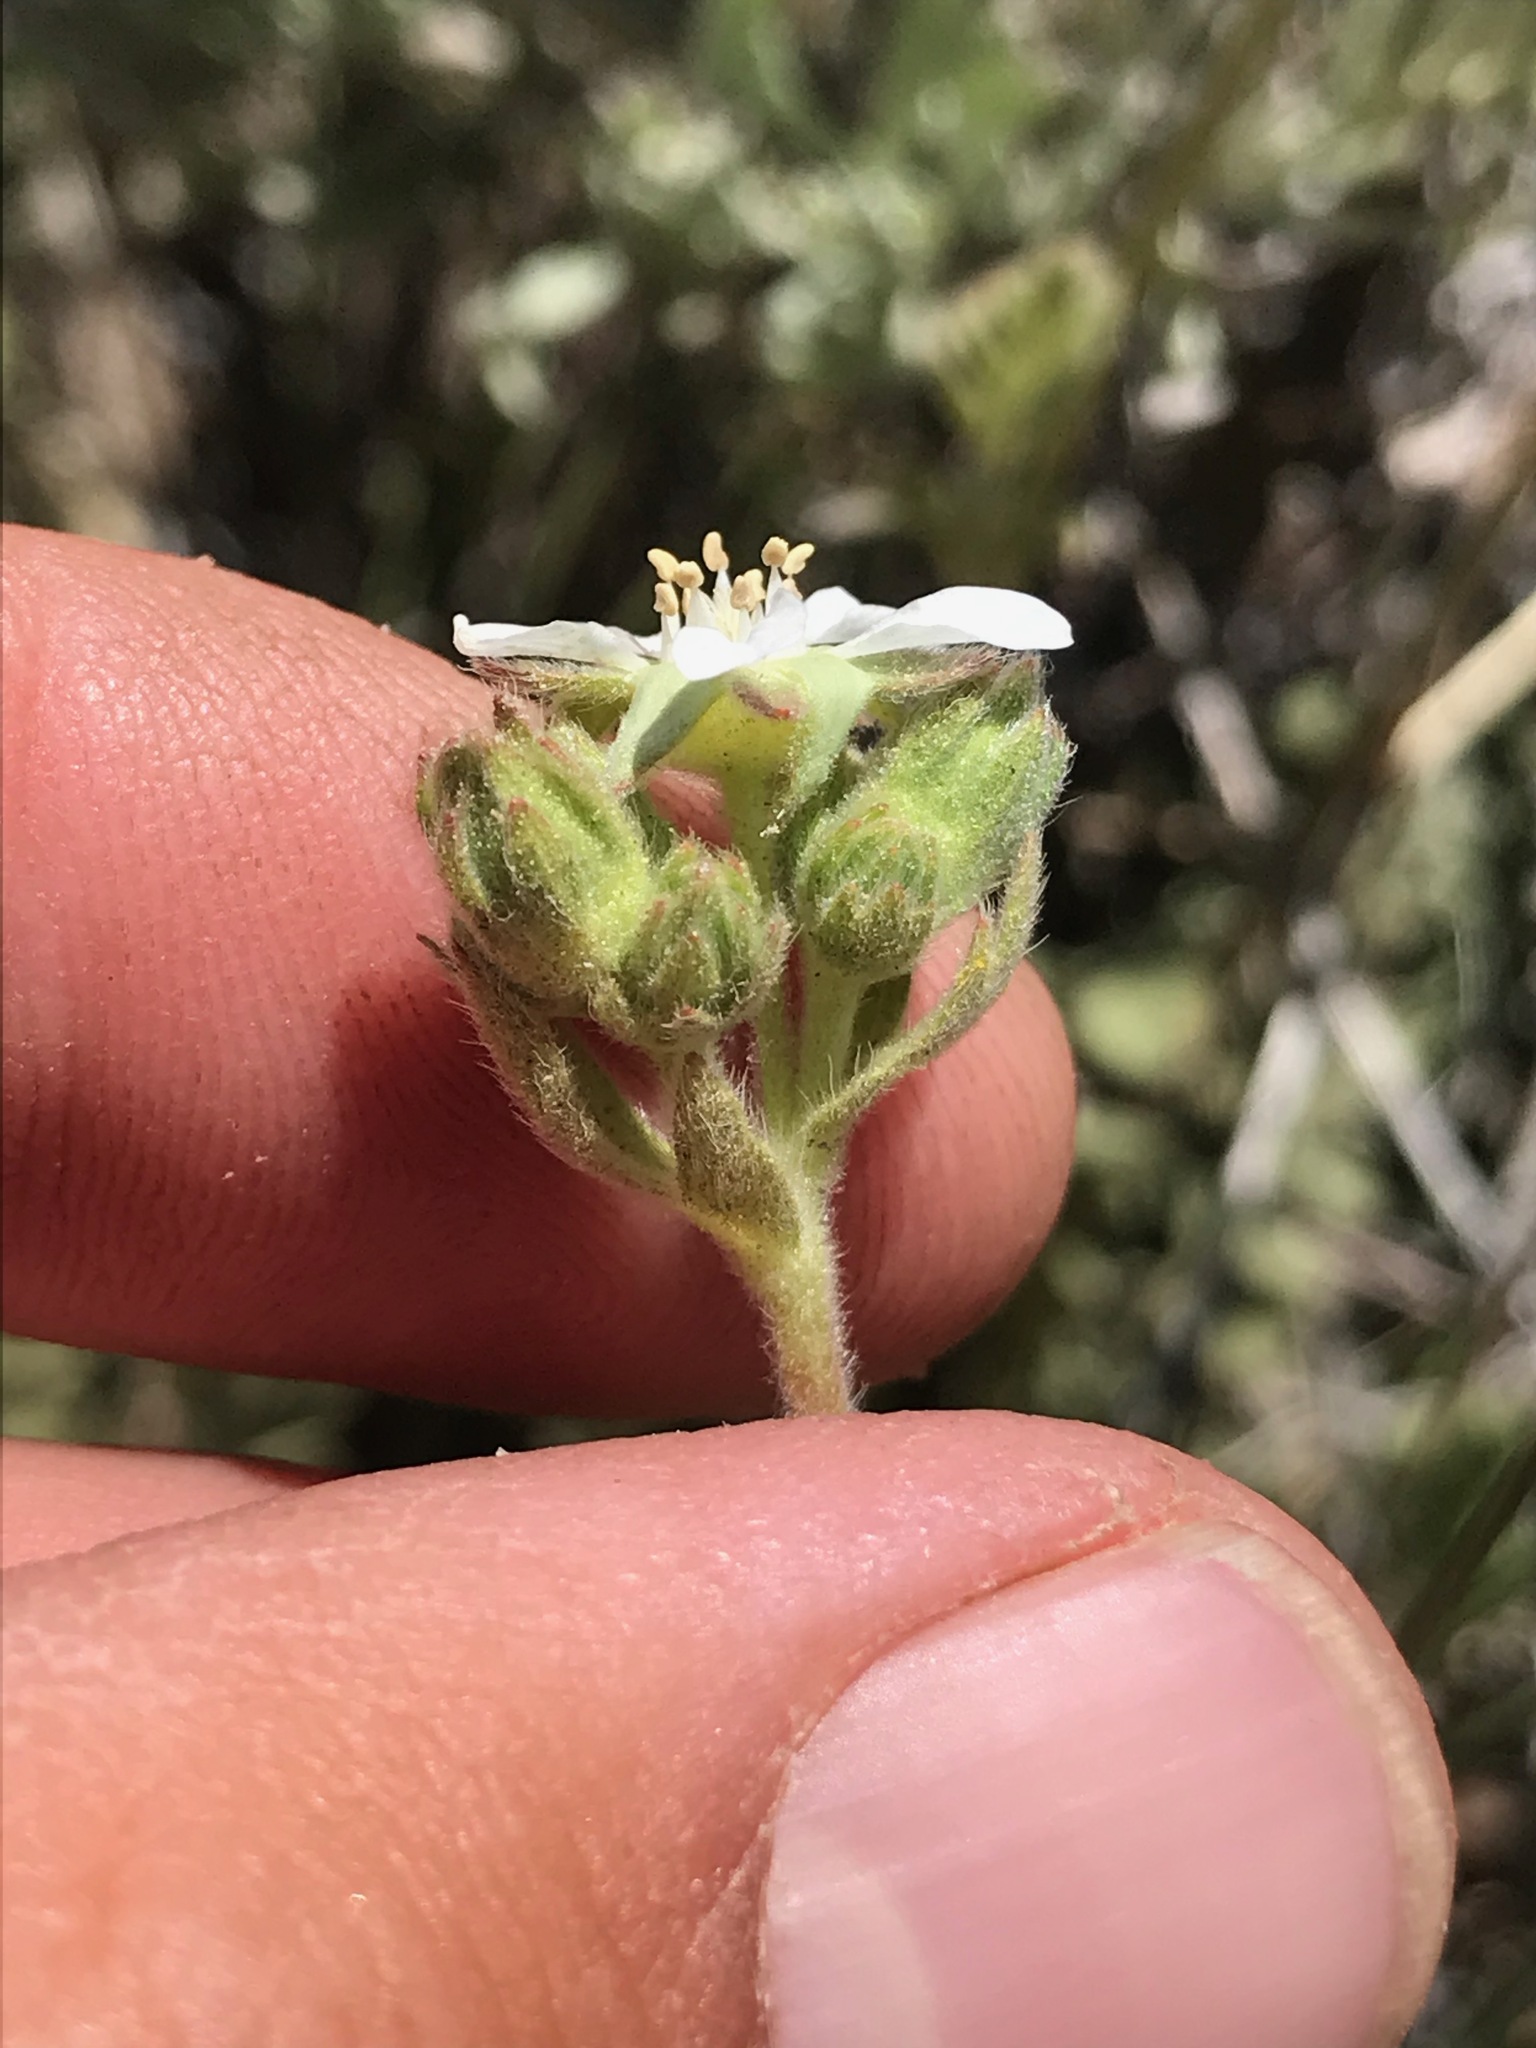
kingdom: Plantae
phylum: Tracheophyta
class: Magnoliopsida
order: Rosales
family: Rosaceae
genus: Potentilla
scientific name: Potentilla rydbergii
